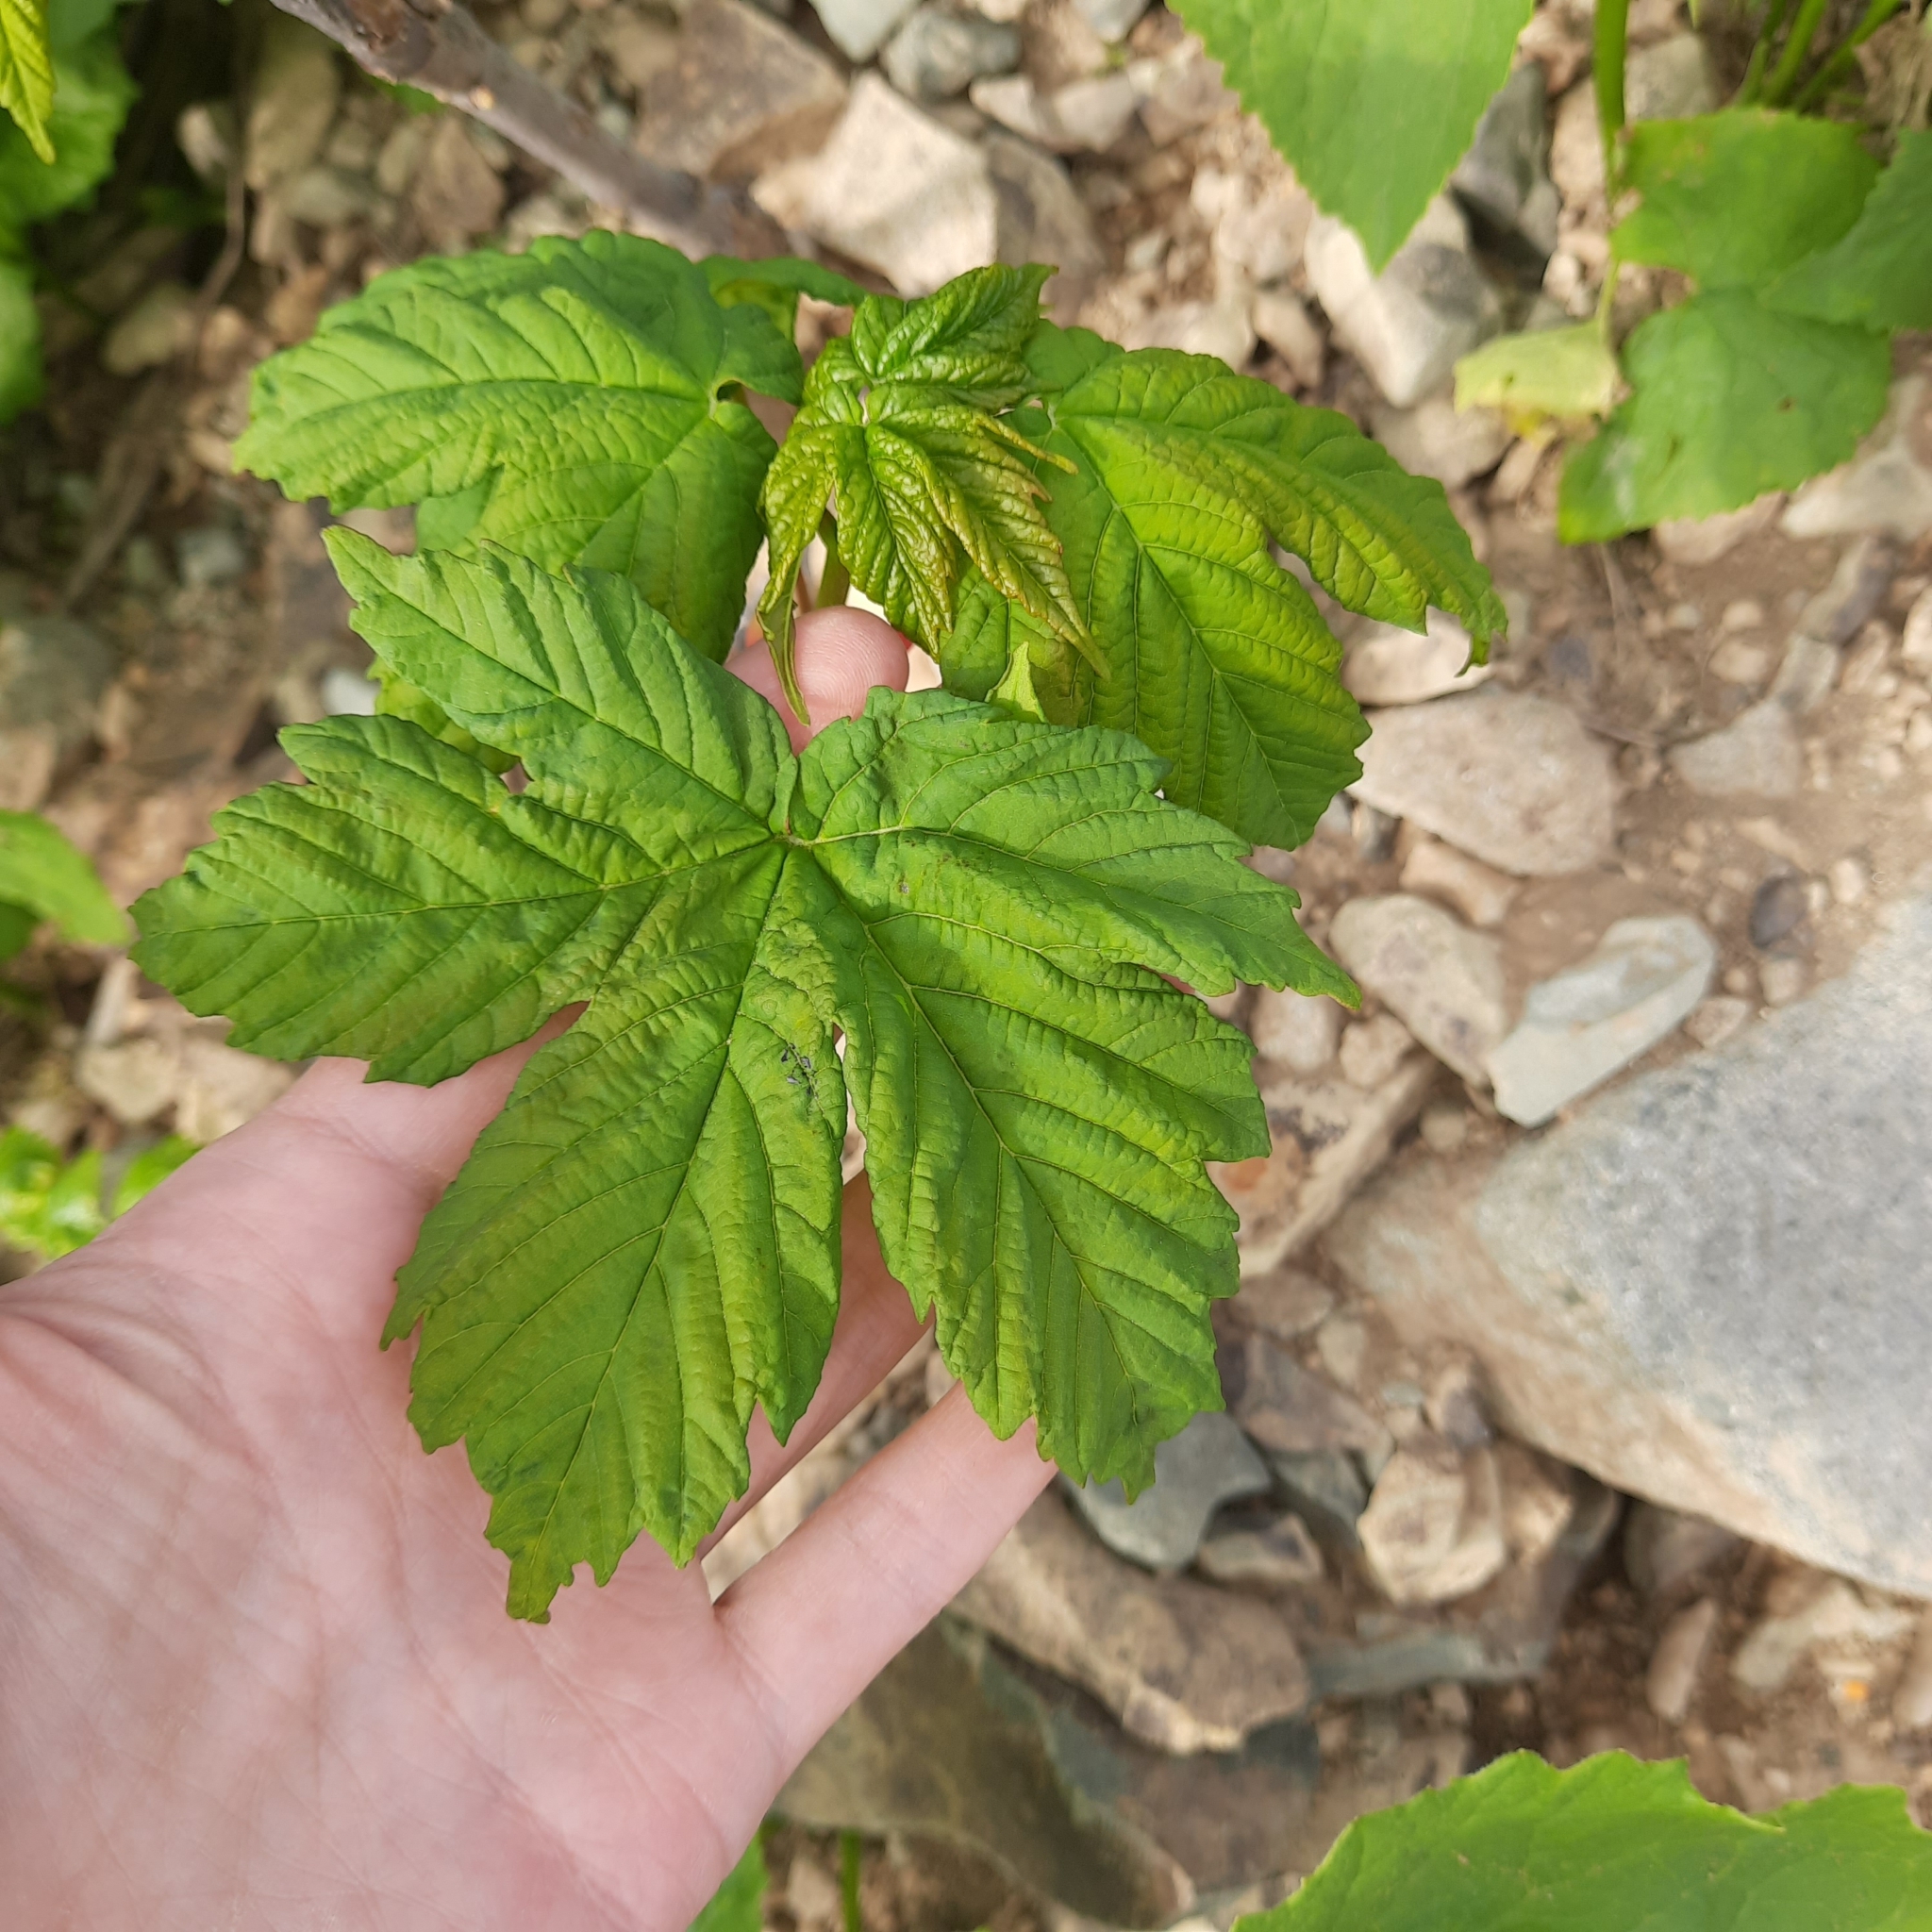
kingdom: Plantae
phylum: Tracheophyta
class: Magnoliopsida
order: Sapindales
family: Sapindaceae
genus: Acer
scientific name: Acer pseudoplatanus
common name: Sycamore
